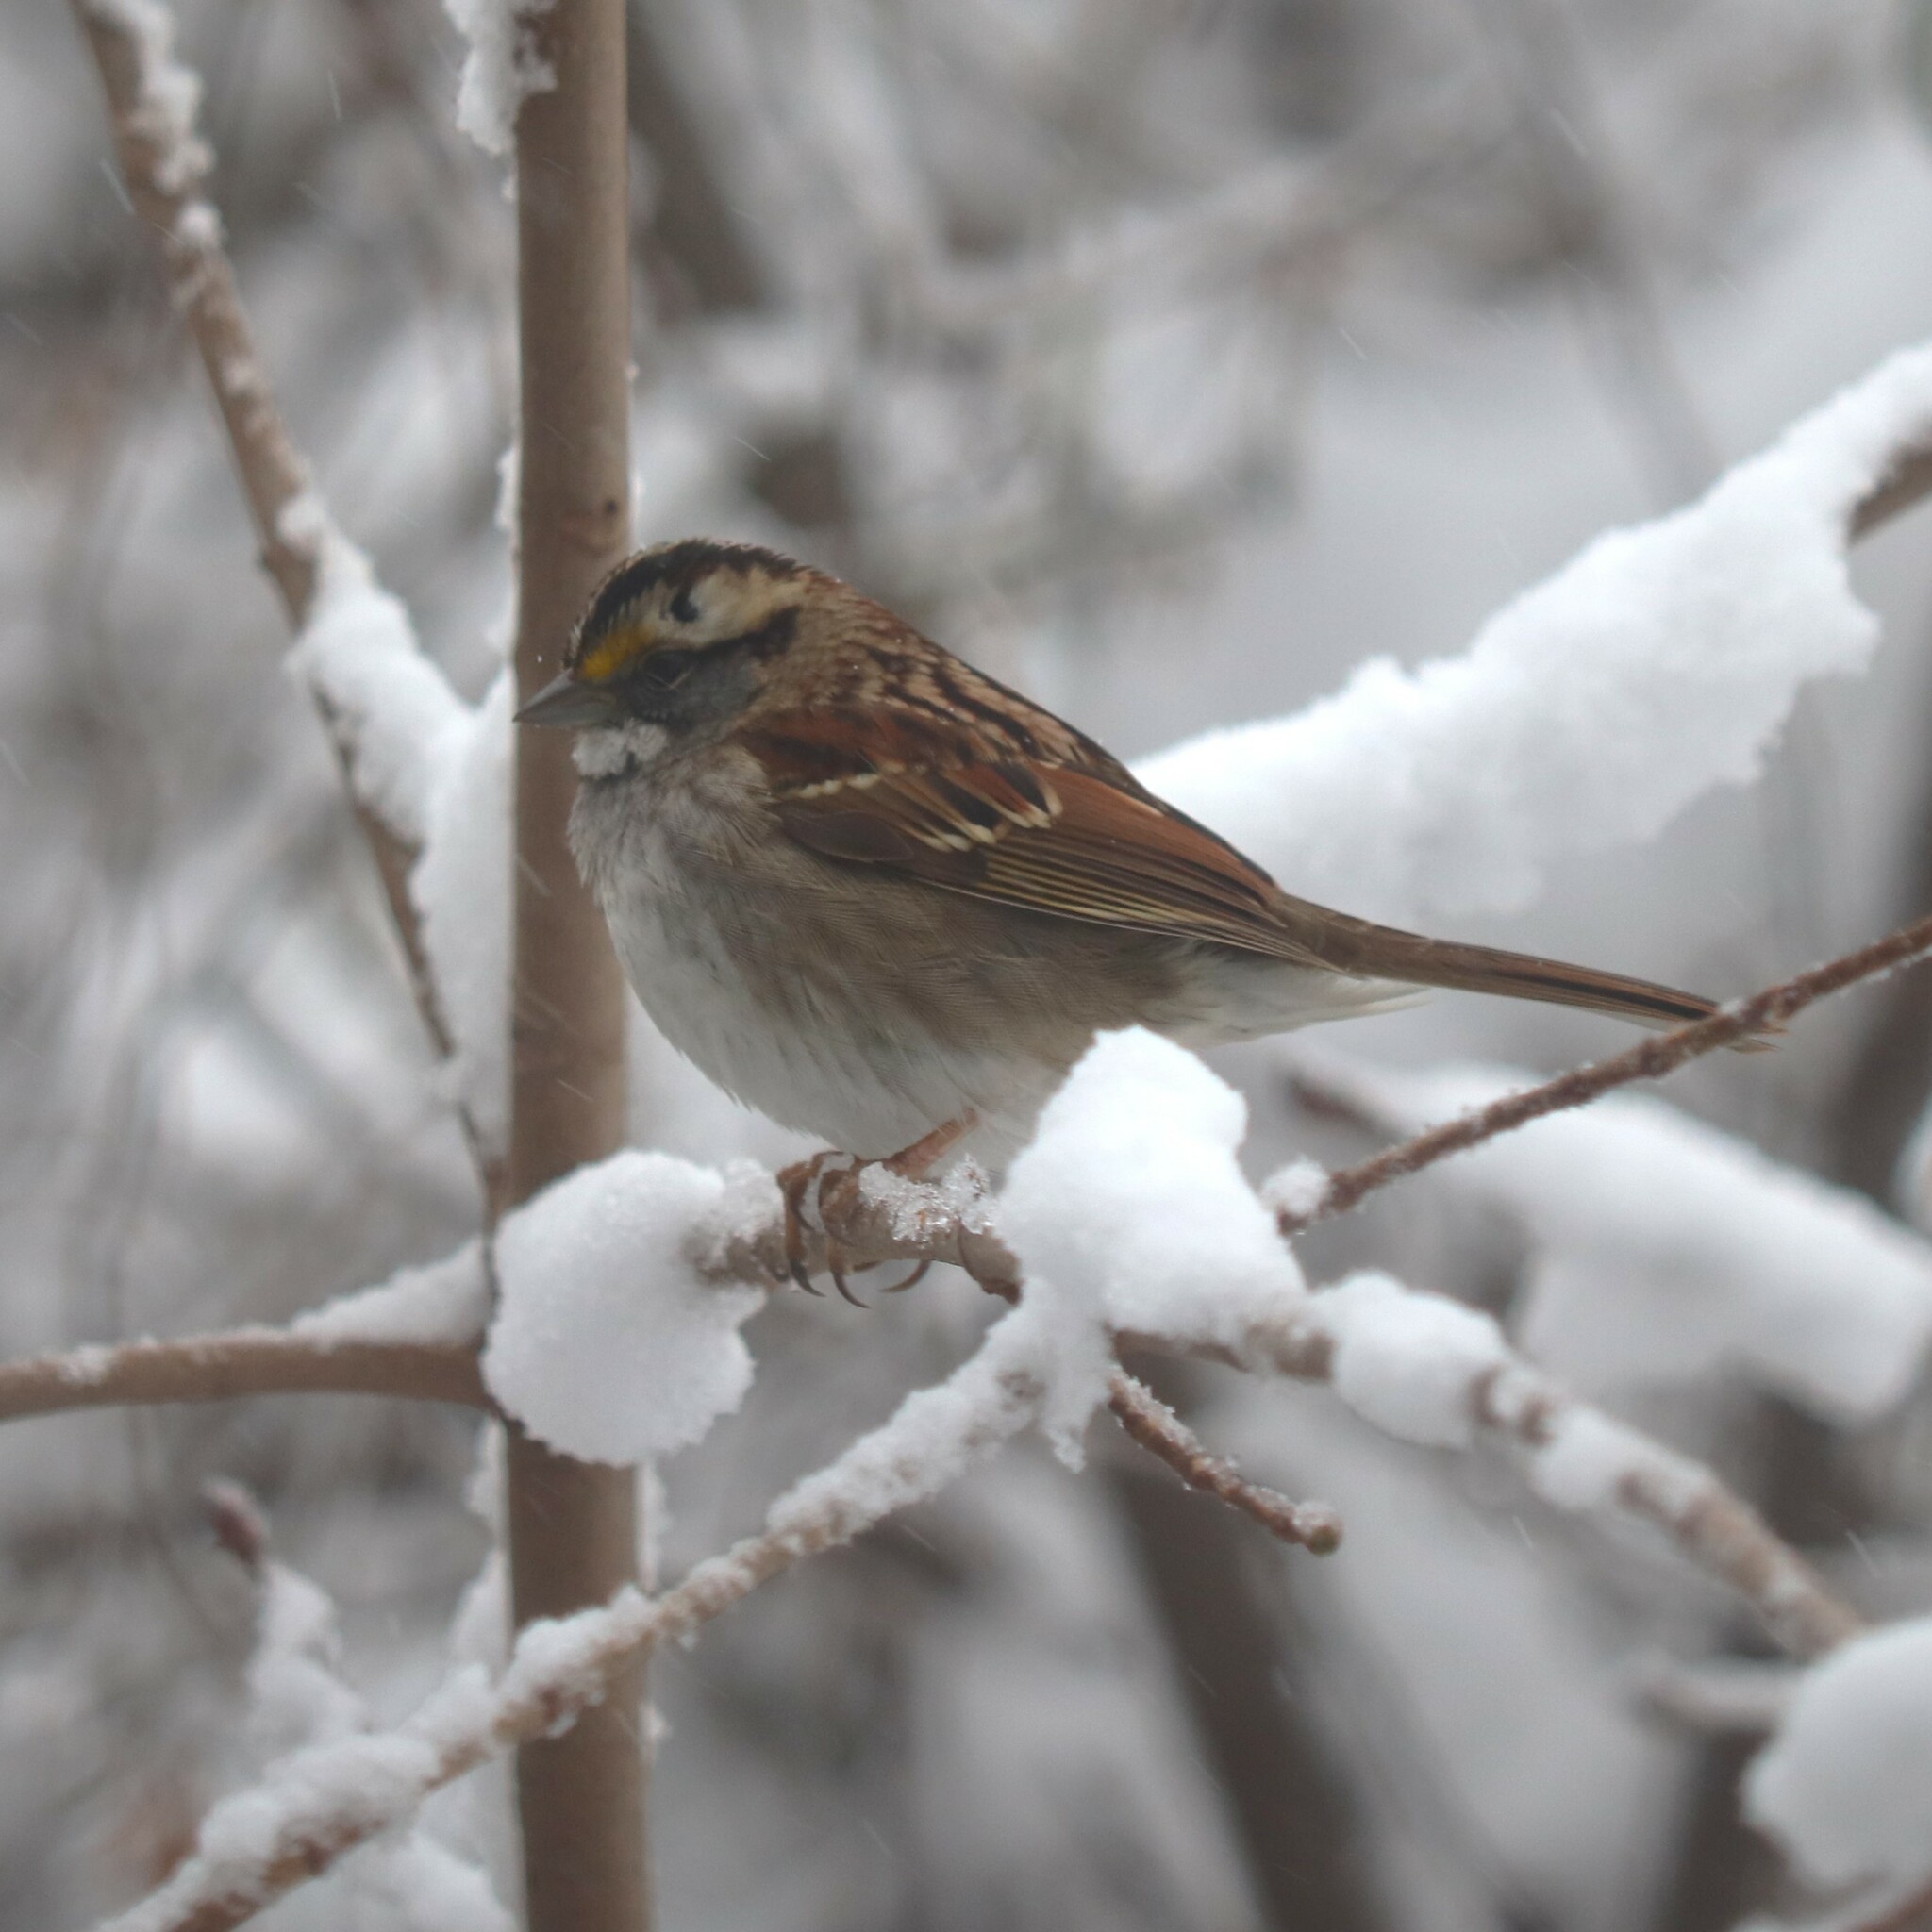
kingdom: Animalia
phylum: Chordata
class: Aves
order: Passeriformes
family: Passerellidae
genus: Zonotrichia
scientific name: Zonotrichia albicollis
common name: White-throated sparrow
